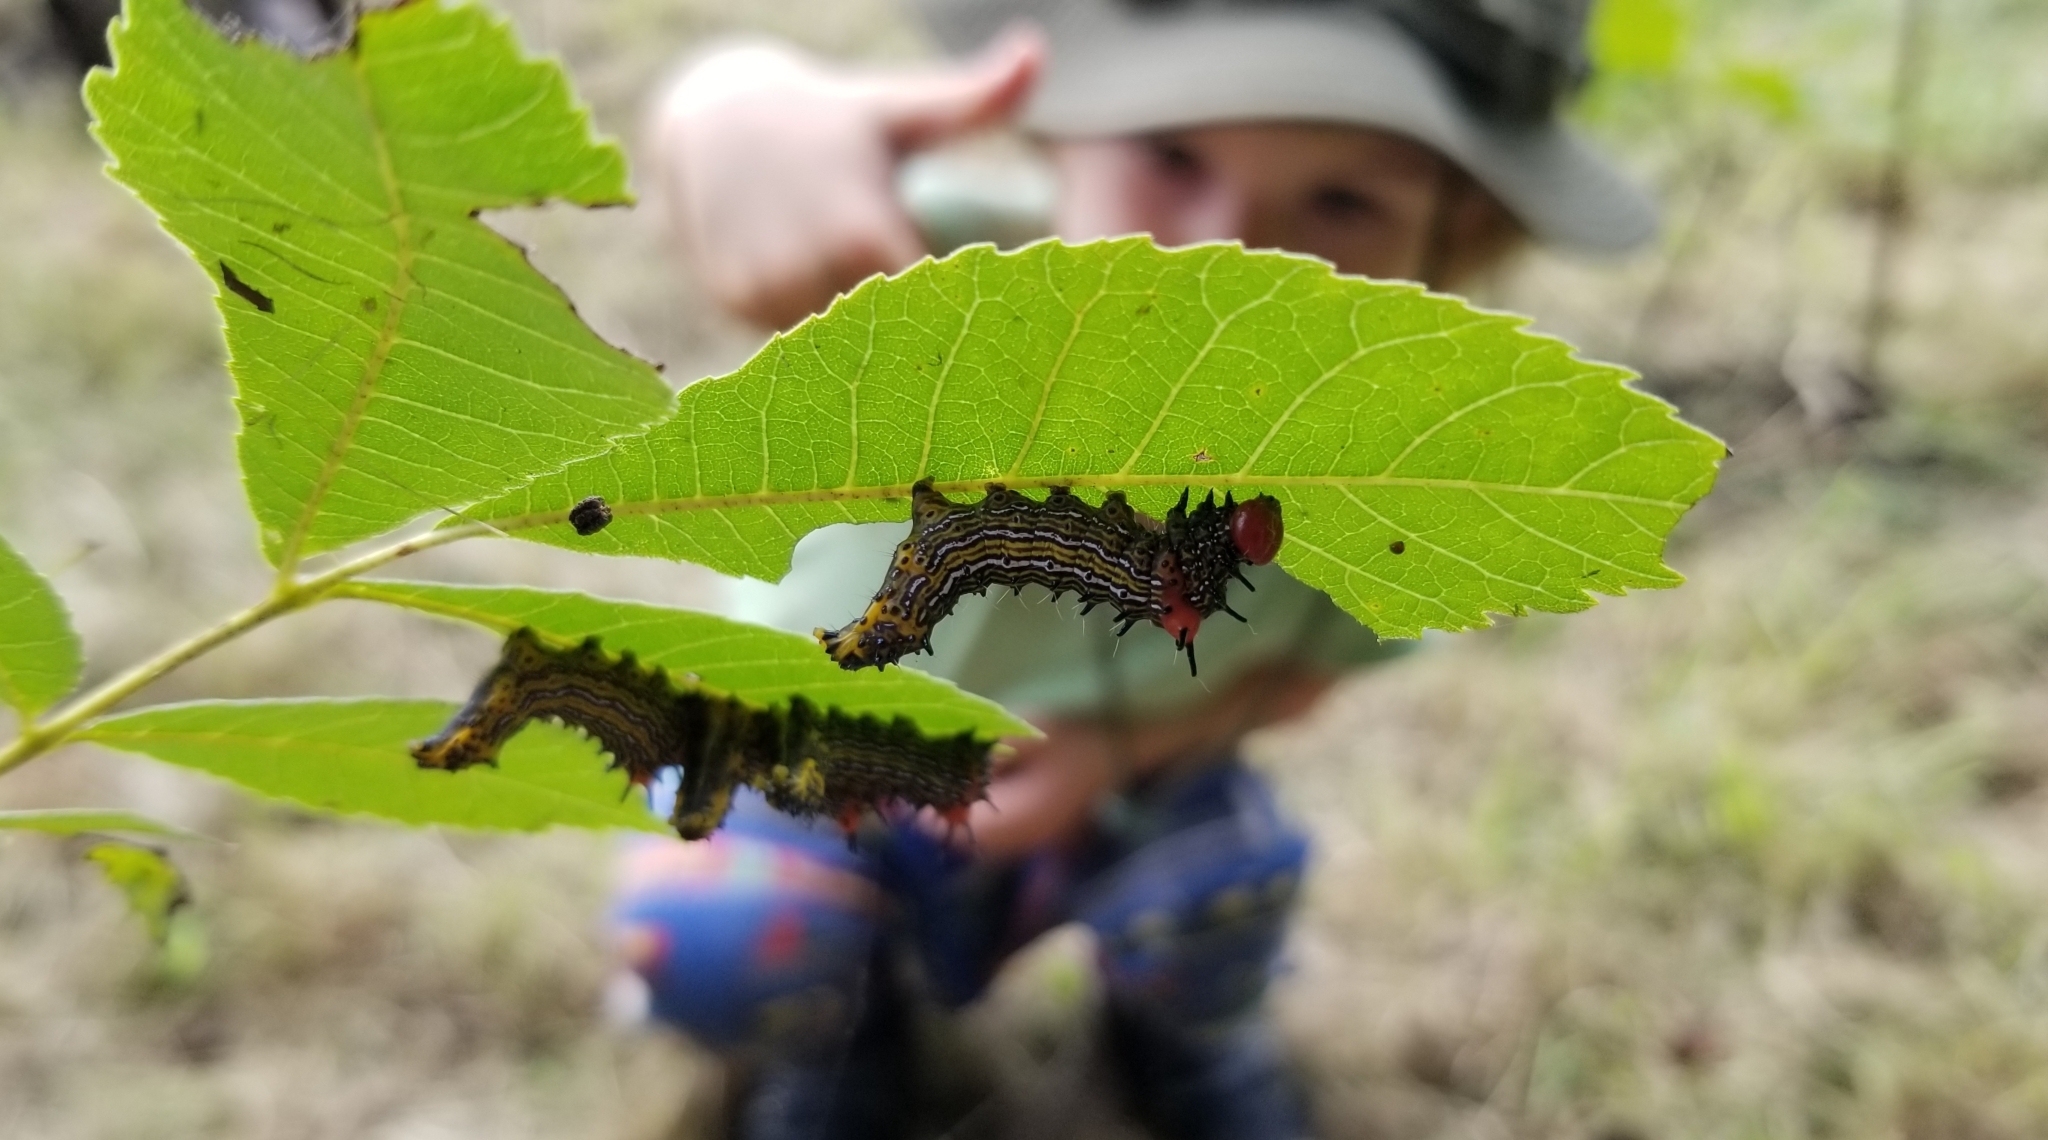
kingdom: Animalia
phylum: Arthropoda
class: Insecta
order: Lepidoptera
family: Notodontidae
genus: Schizura
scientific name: Schizura
